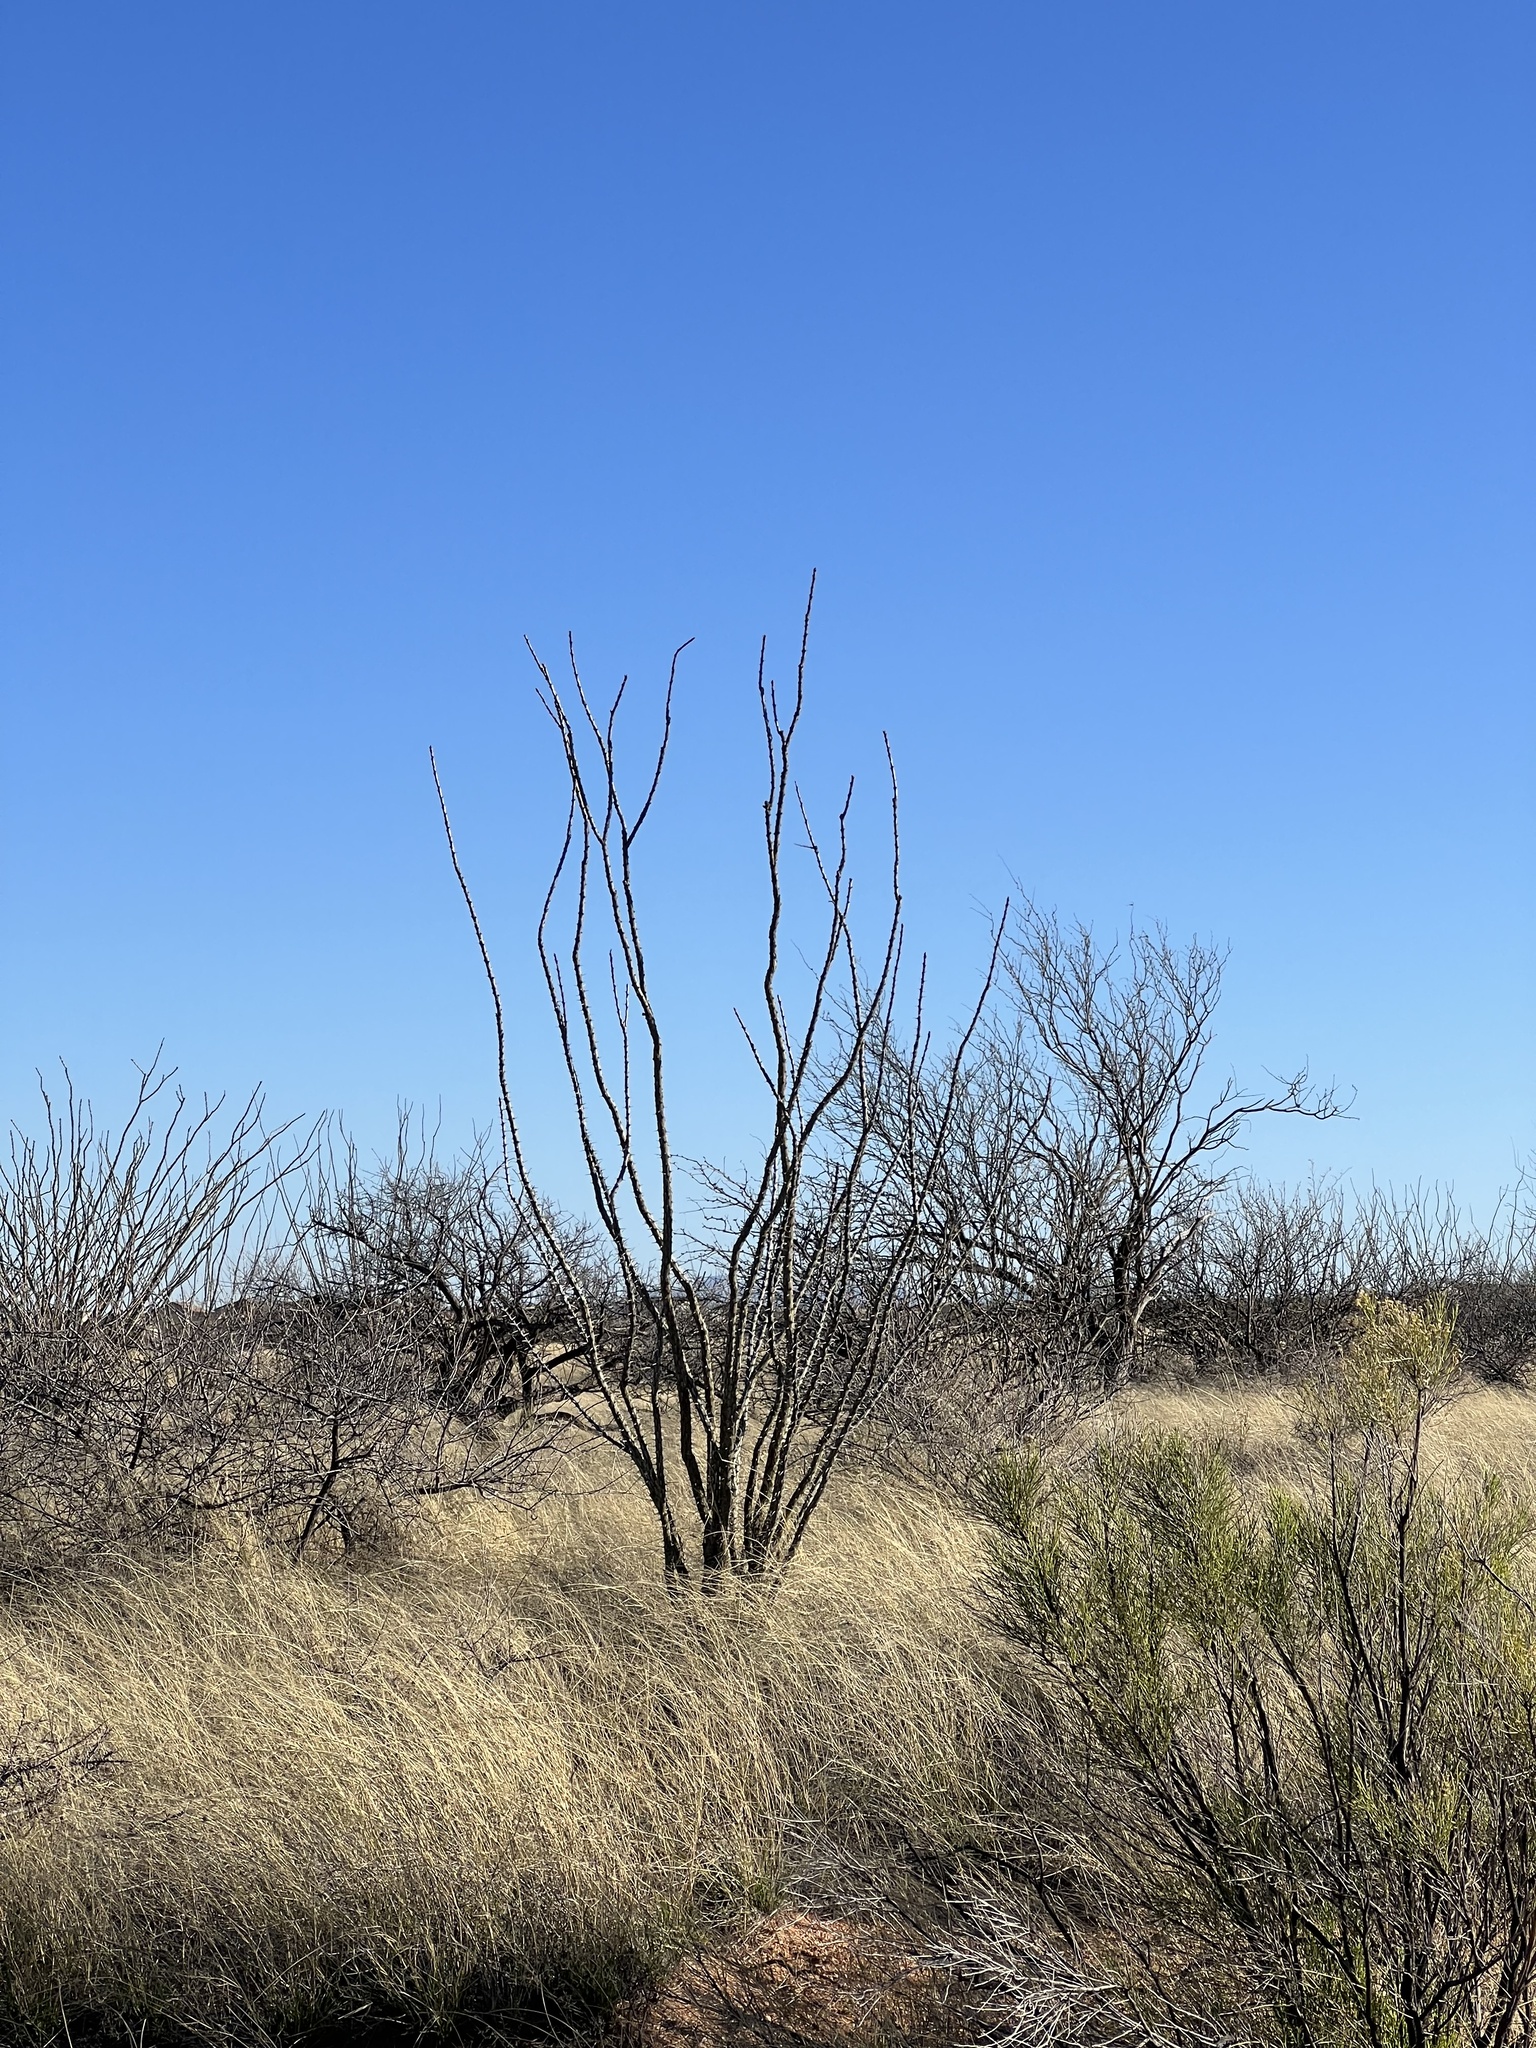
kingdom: Plantae
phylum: Tracheophyta
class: Magnoliopsida
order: Ericales
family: Fouquieriaceae
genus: Fouquieria
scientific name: Fouquieria splendens
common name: Vine-cactus
